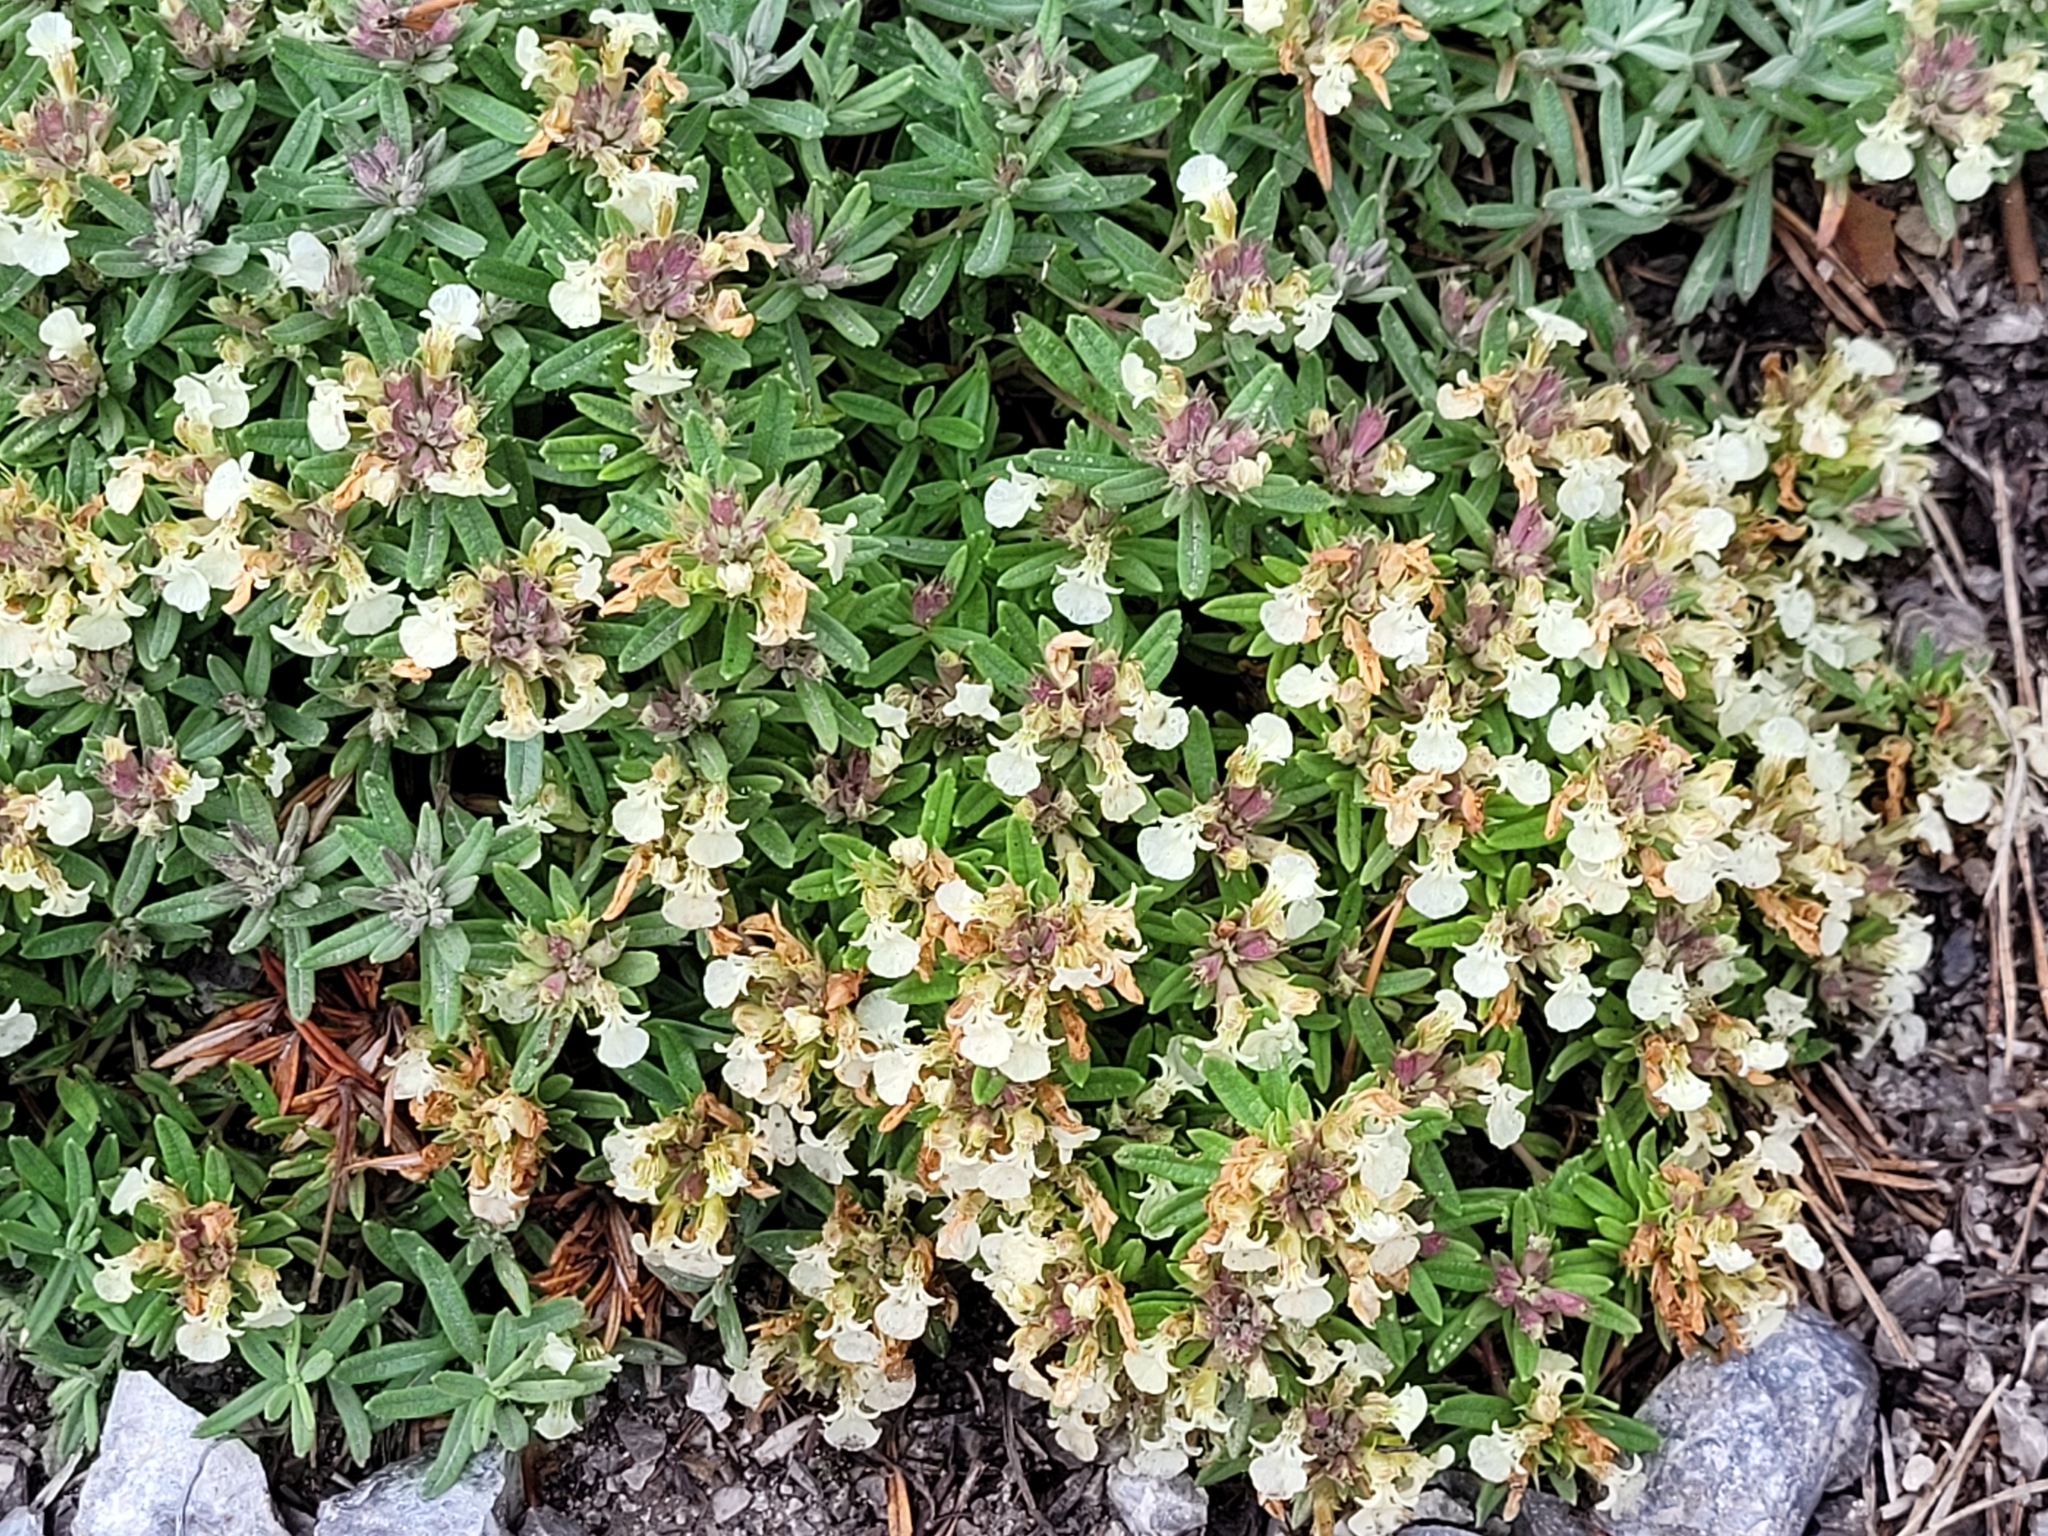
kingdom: Plantae
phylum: Tracheophyta
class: Magnoliopsida
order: Lamiales
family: Lamiaceae
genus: Teucrium
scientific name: Teucrium montanum
